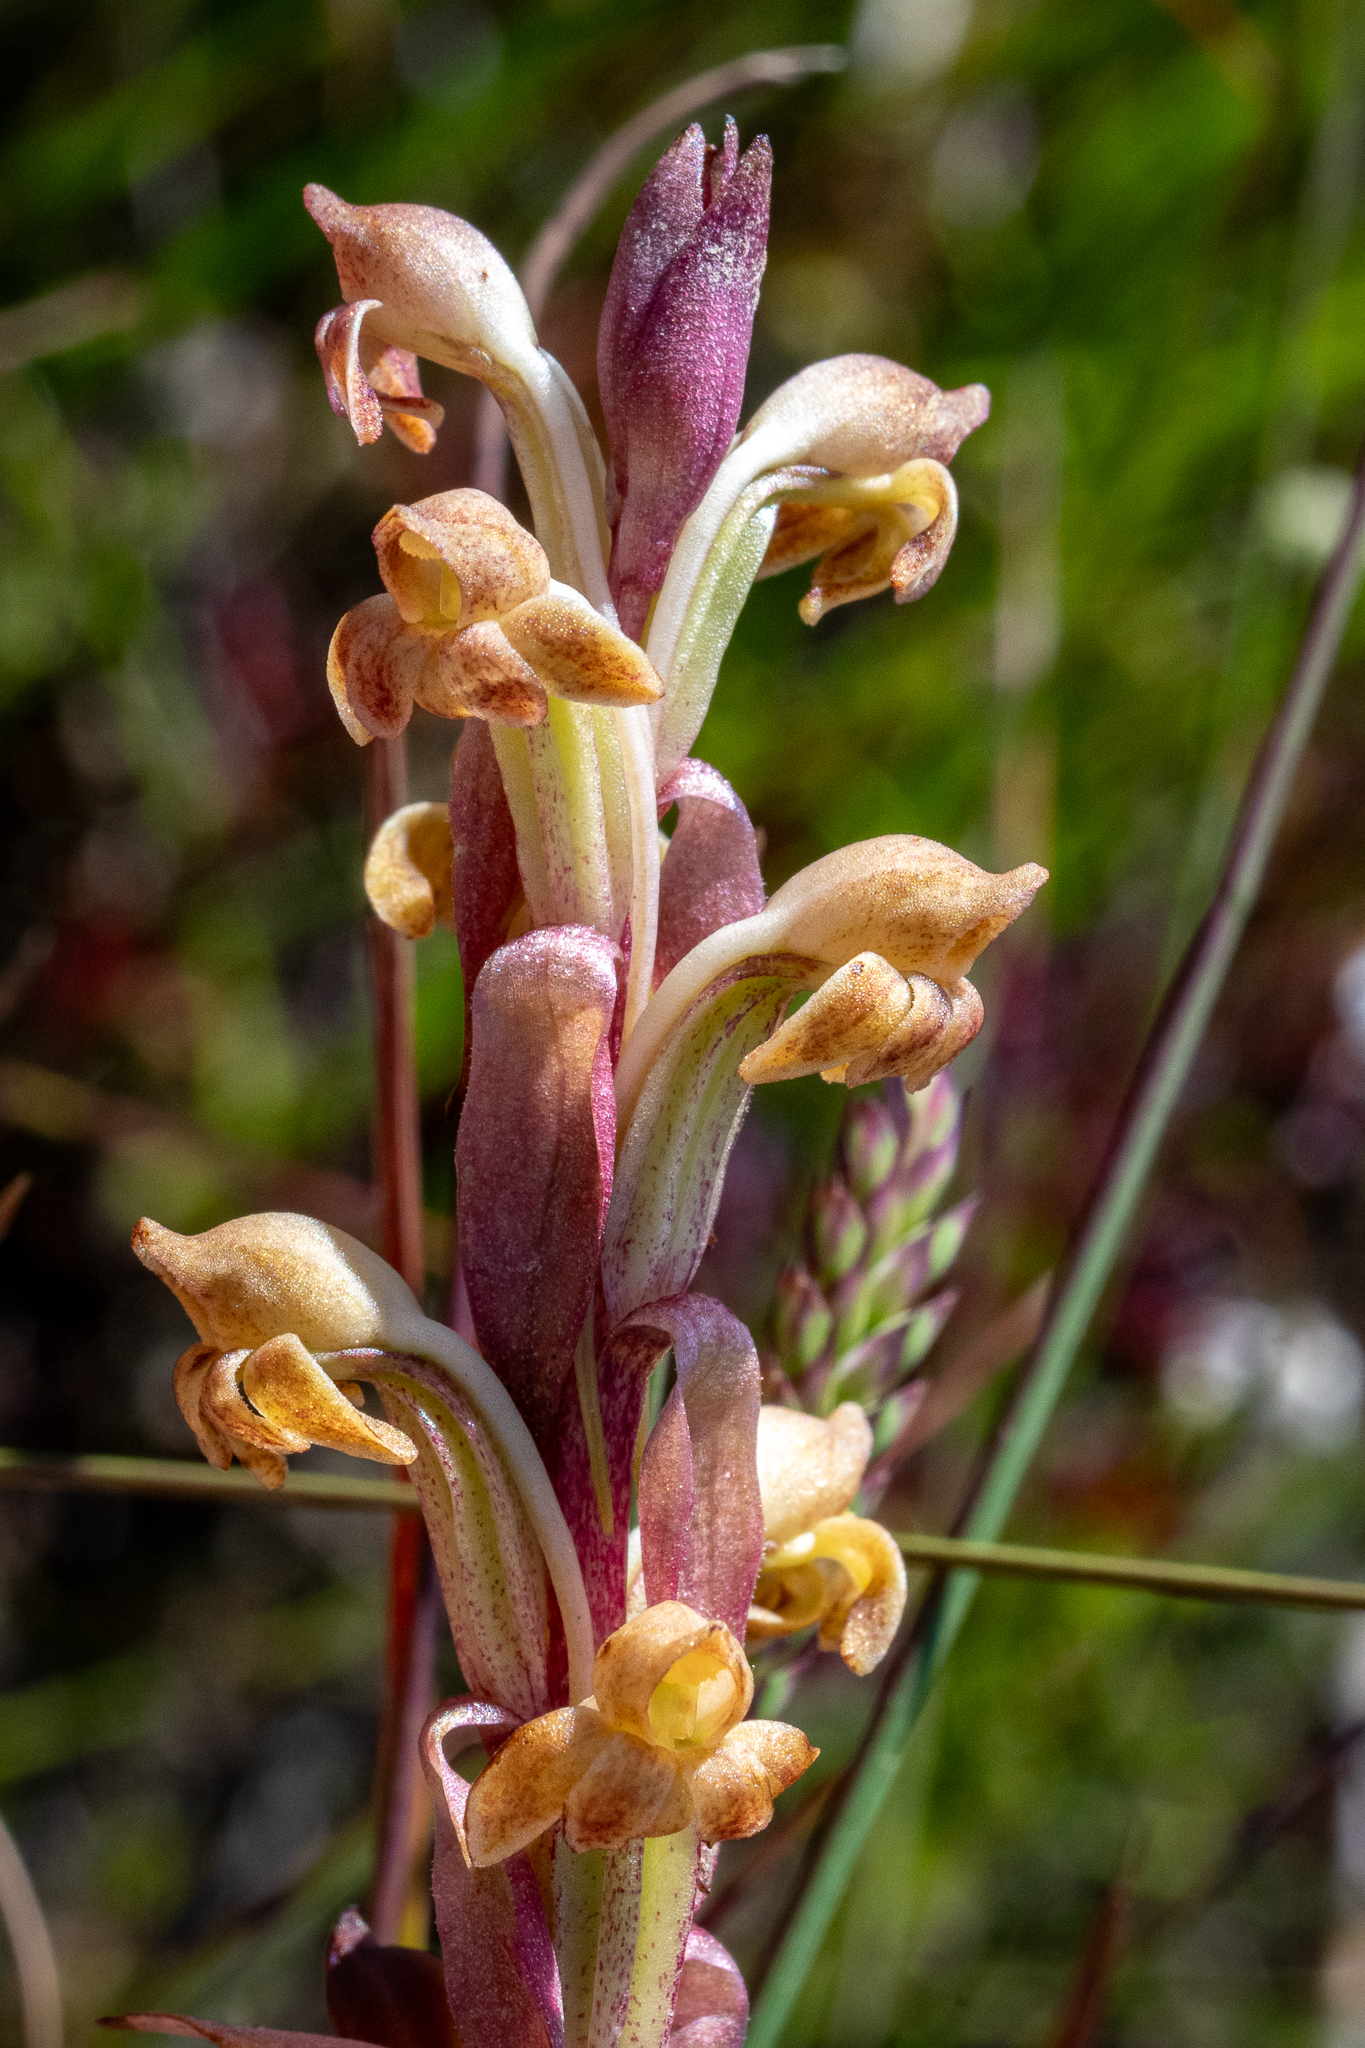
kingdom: Plantae
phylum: Tracheophyta
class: Liliopsida
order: Asparagales
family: Orchidaceae
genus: Satyrium
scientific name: Satyrium bicorne
